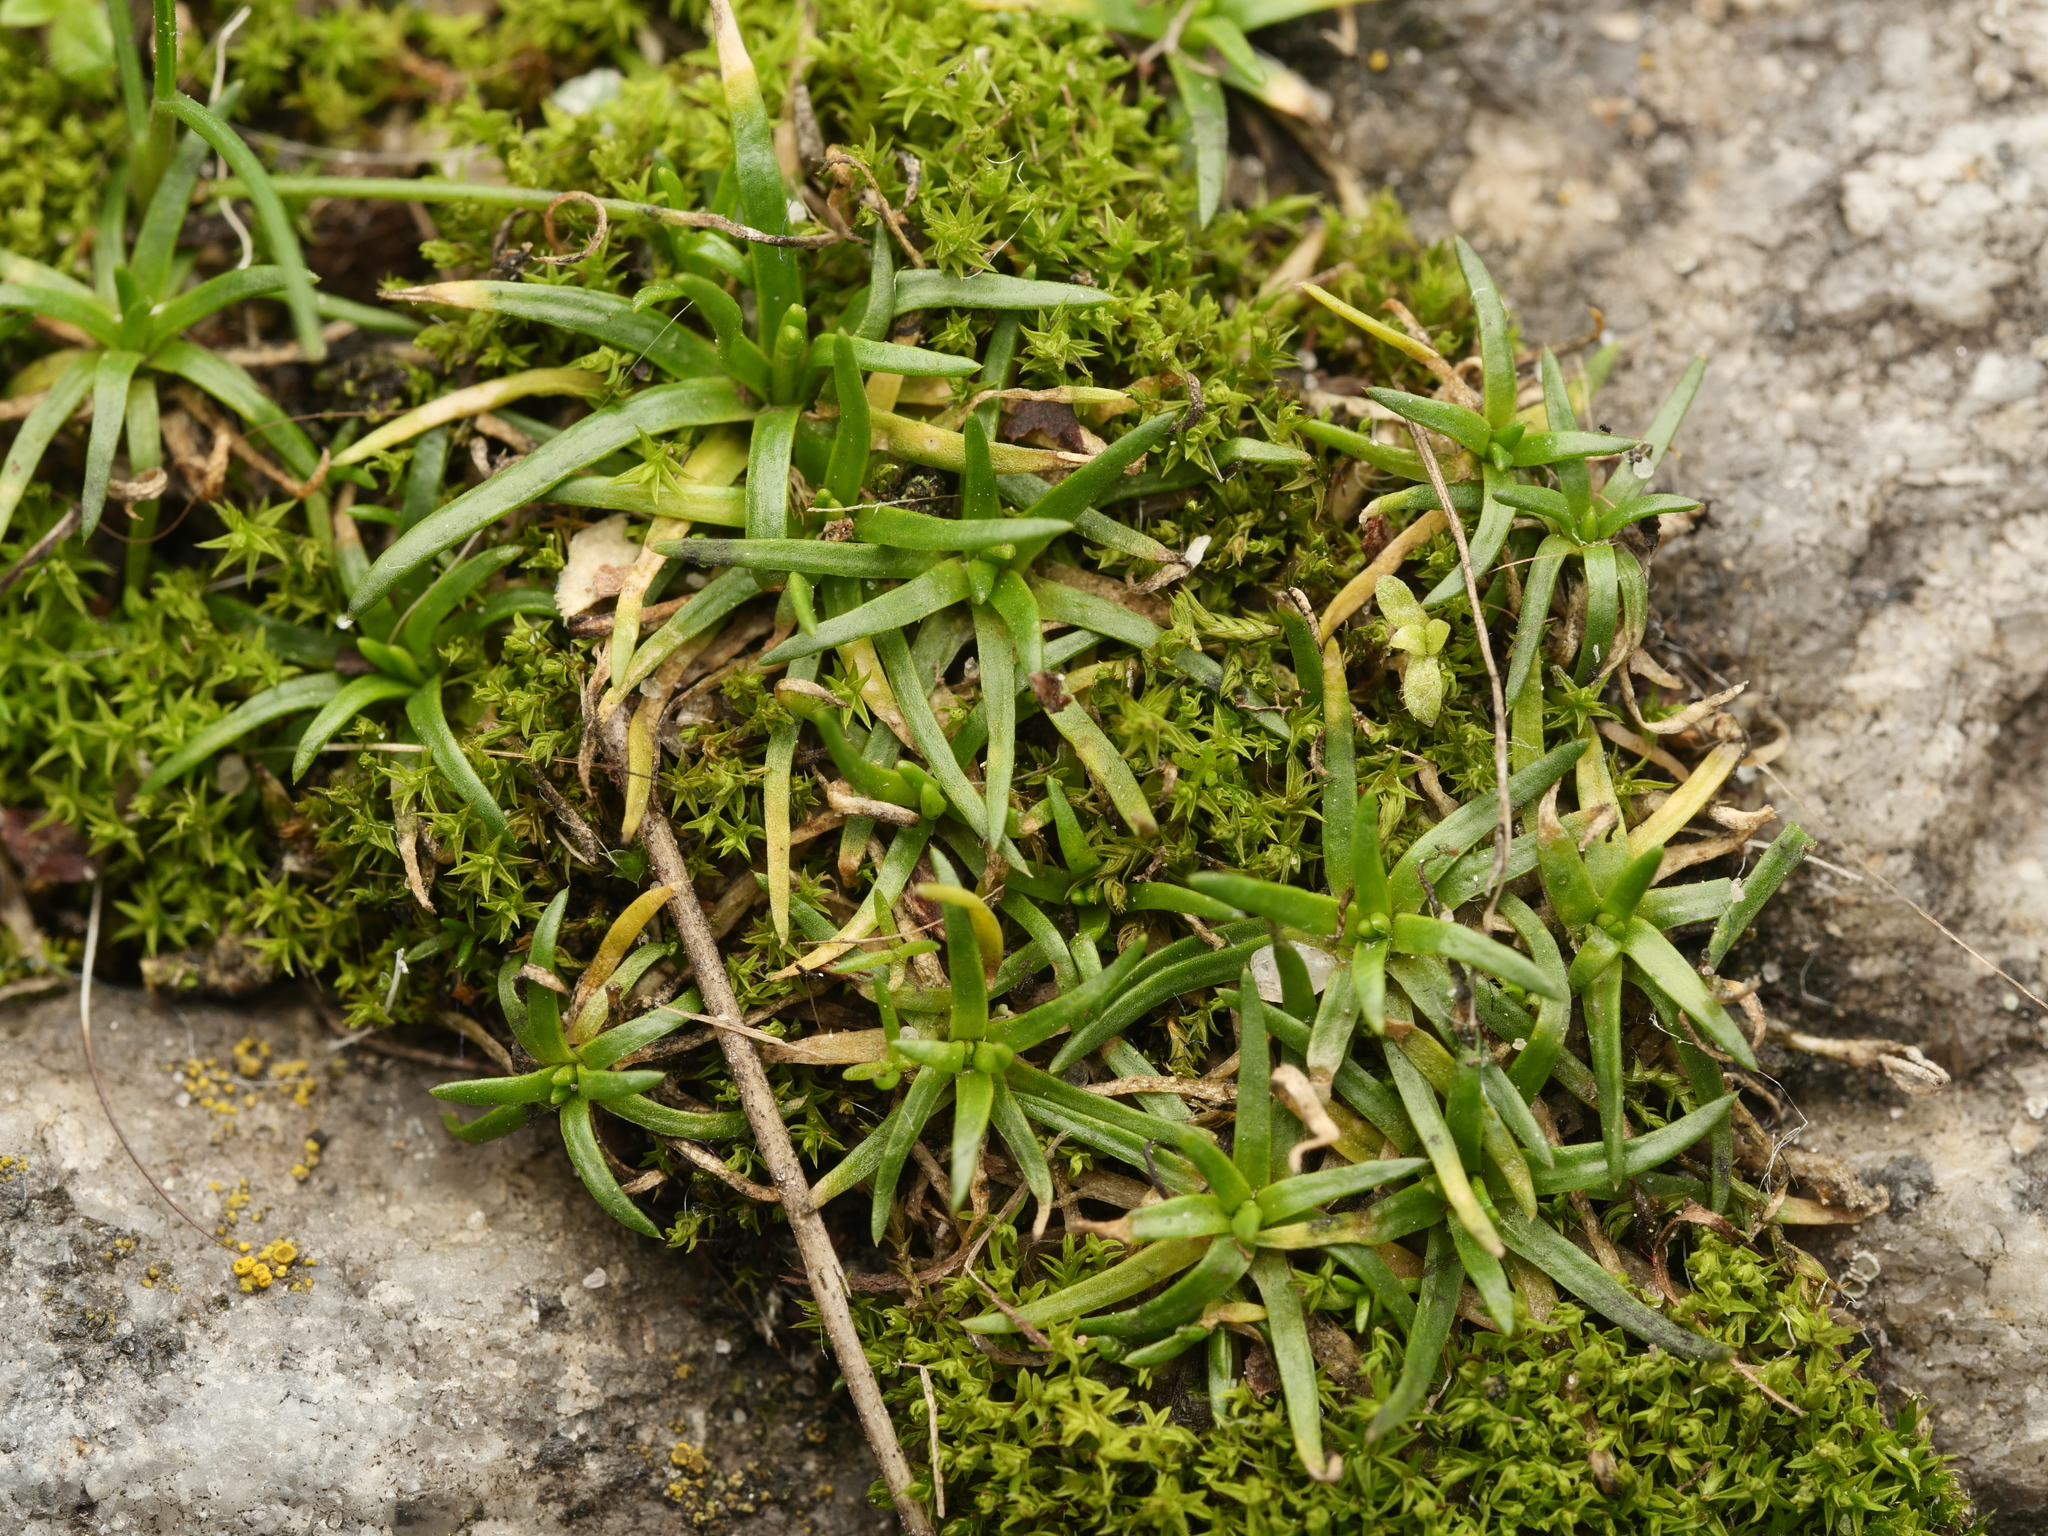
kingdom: Plantae
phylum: Tracheophyta
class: Magnoliopsida
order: Caryophyllales
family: Caryophyllaceae
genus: Sagina
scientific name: Sagina procumbens
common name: Procumbent pearlwort
